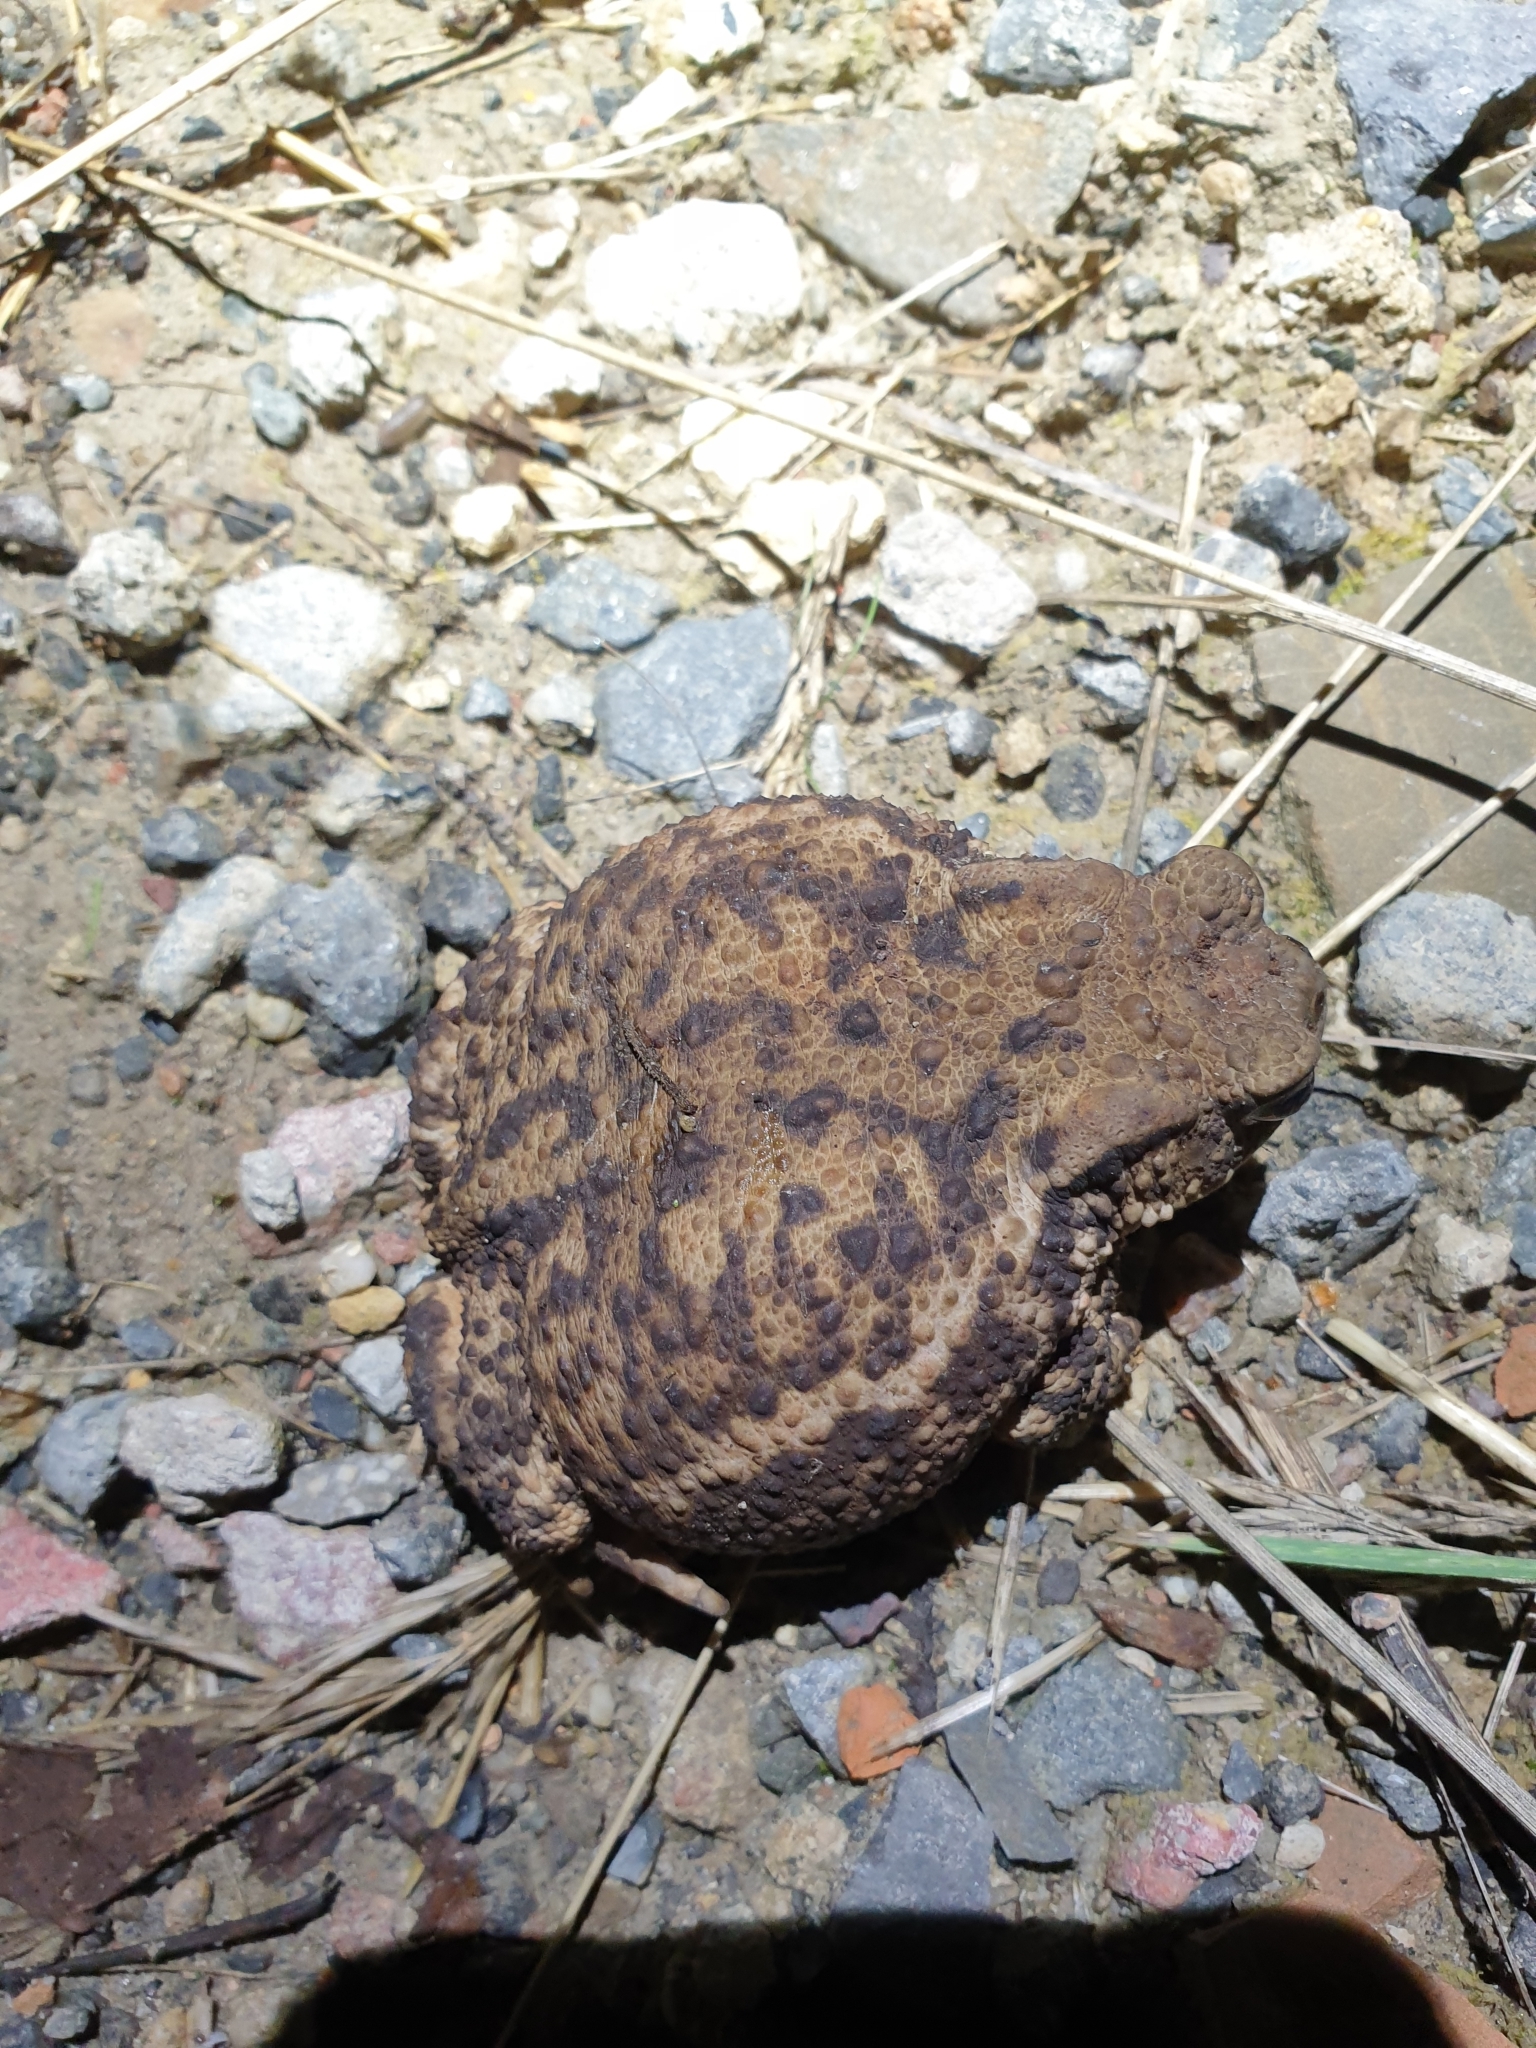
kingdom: Animalia
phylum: Chordata
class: Amphibia
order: Anura
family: Bufonidae
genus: Bufo
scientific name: Bufo bufo
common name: Common toad
